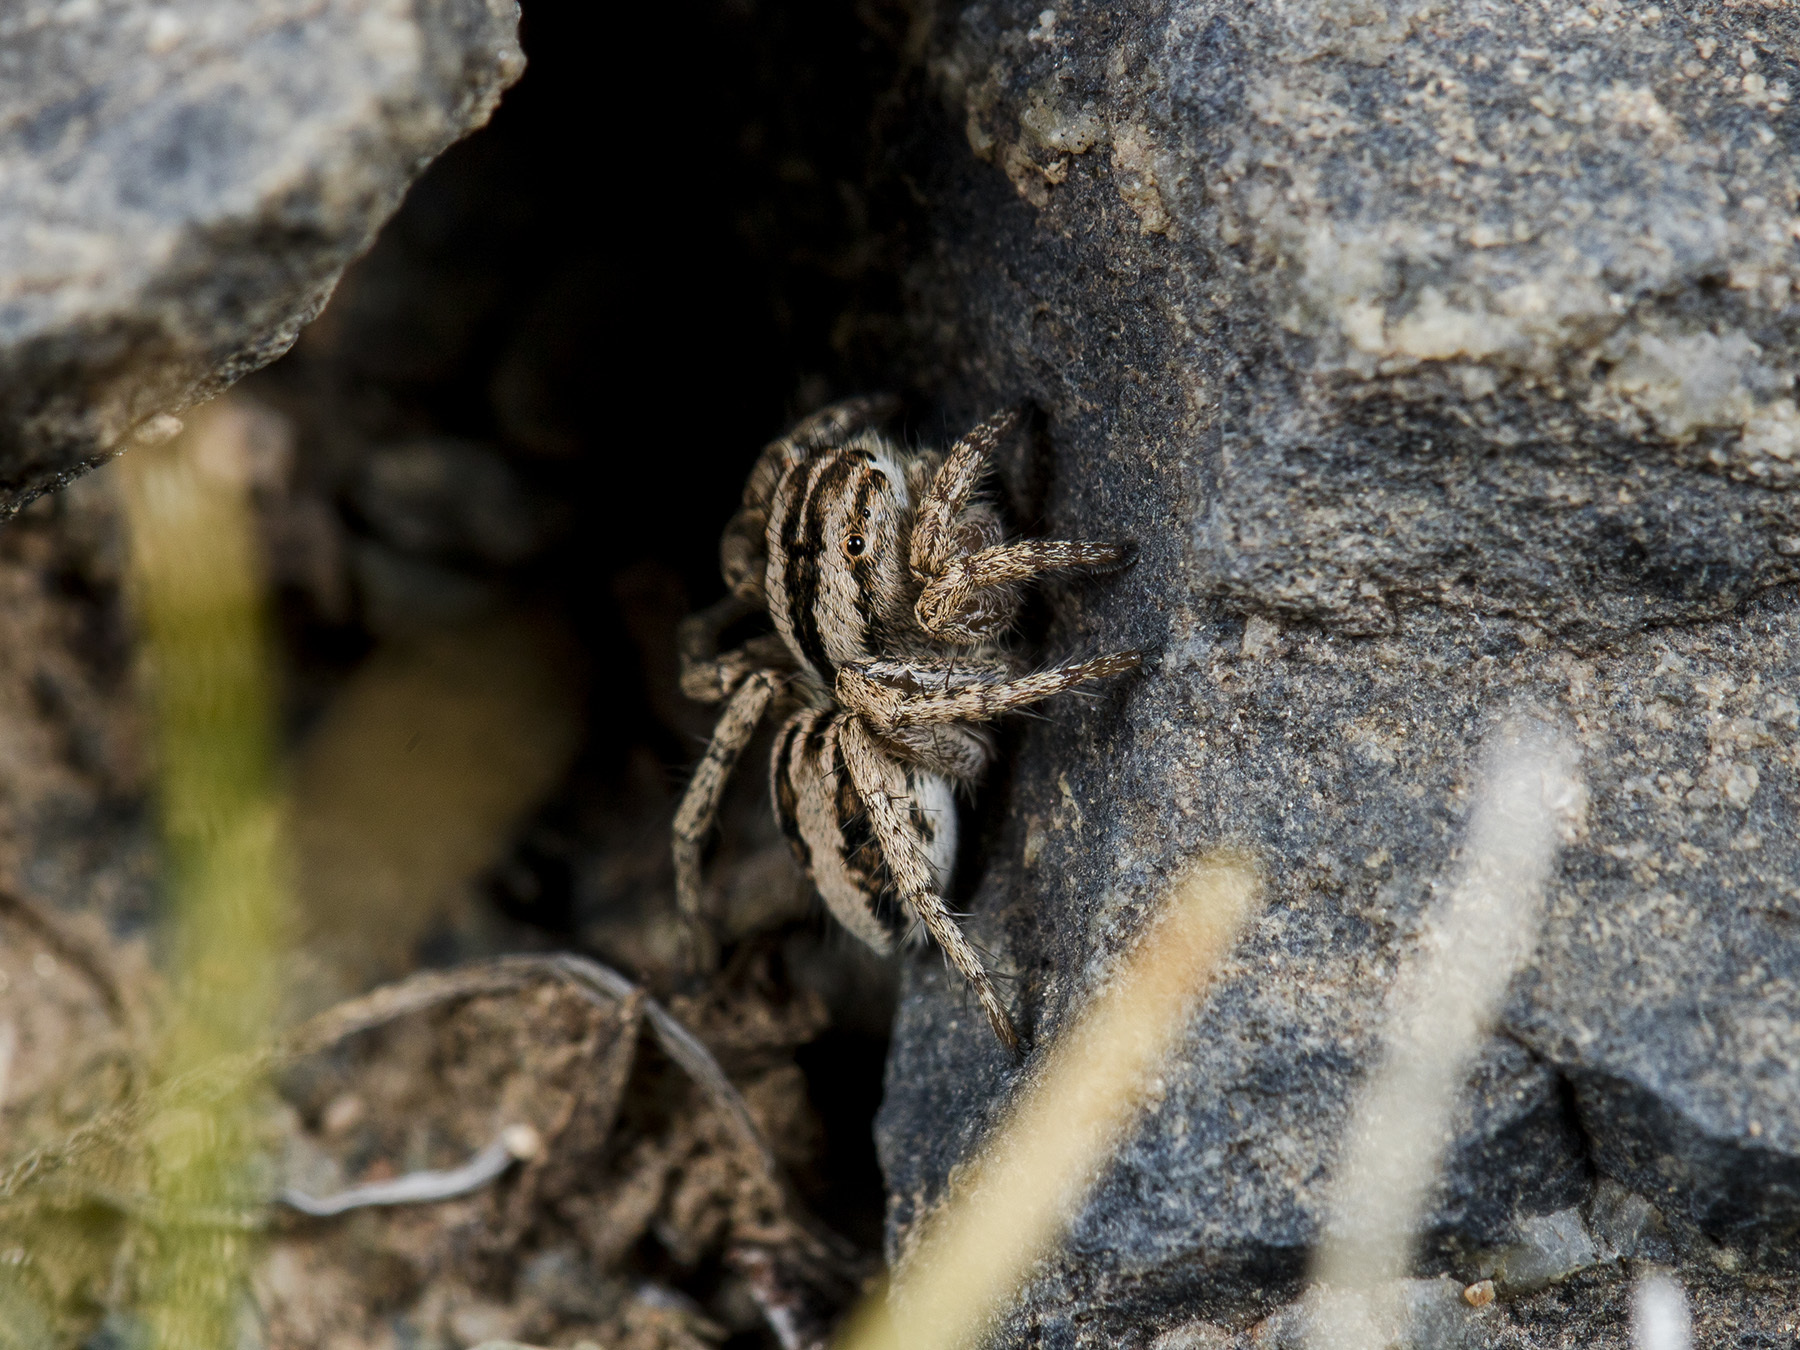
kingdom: Animalia
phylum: Arthropoda
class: Arachnida
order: Araneae
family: Salticidae
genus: Aelurillus
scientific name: Aelurillus m-nigrum
